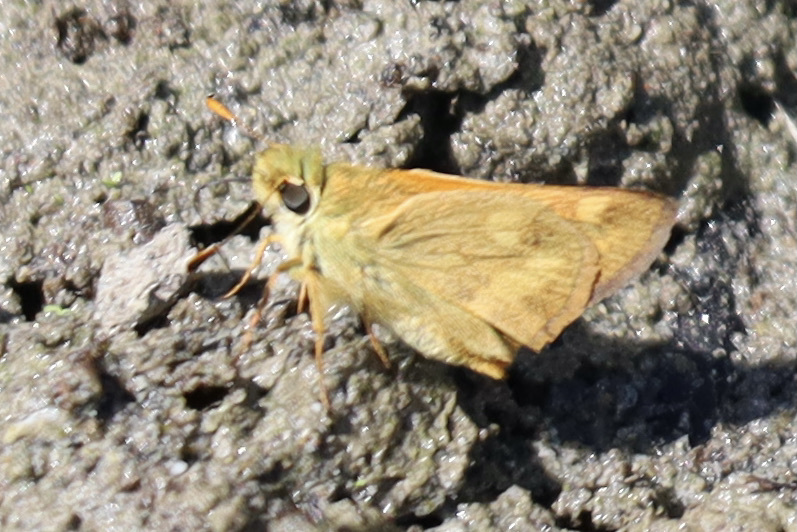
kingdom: Animalia
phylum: Arthropoda
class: Insecta
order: Lepidoptera
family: Hesperiidae
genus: Ochlodes
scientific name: Ochlodes sylvanoides
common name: Woodland skipper
